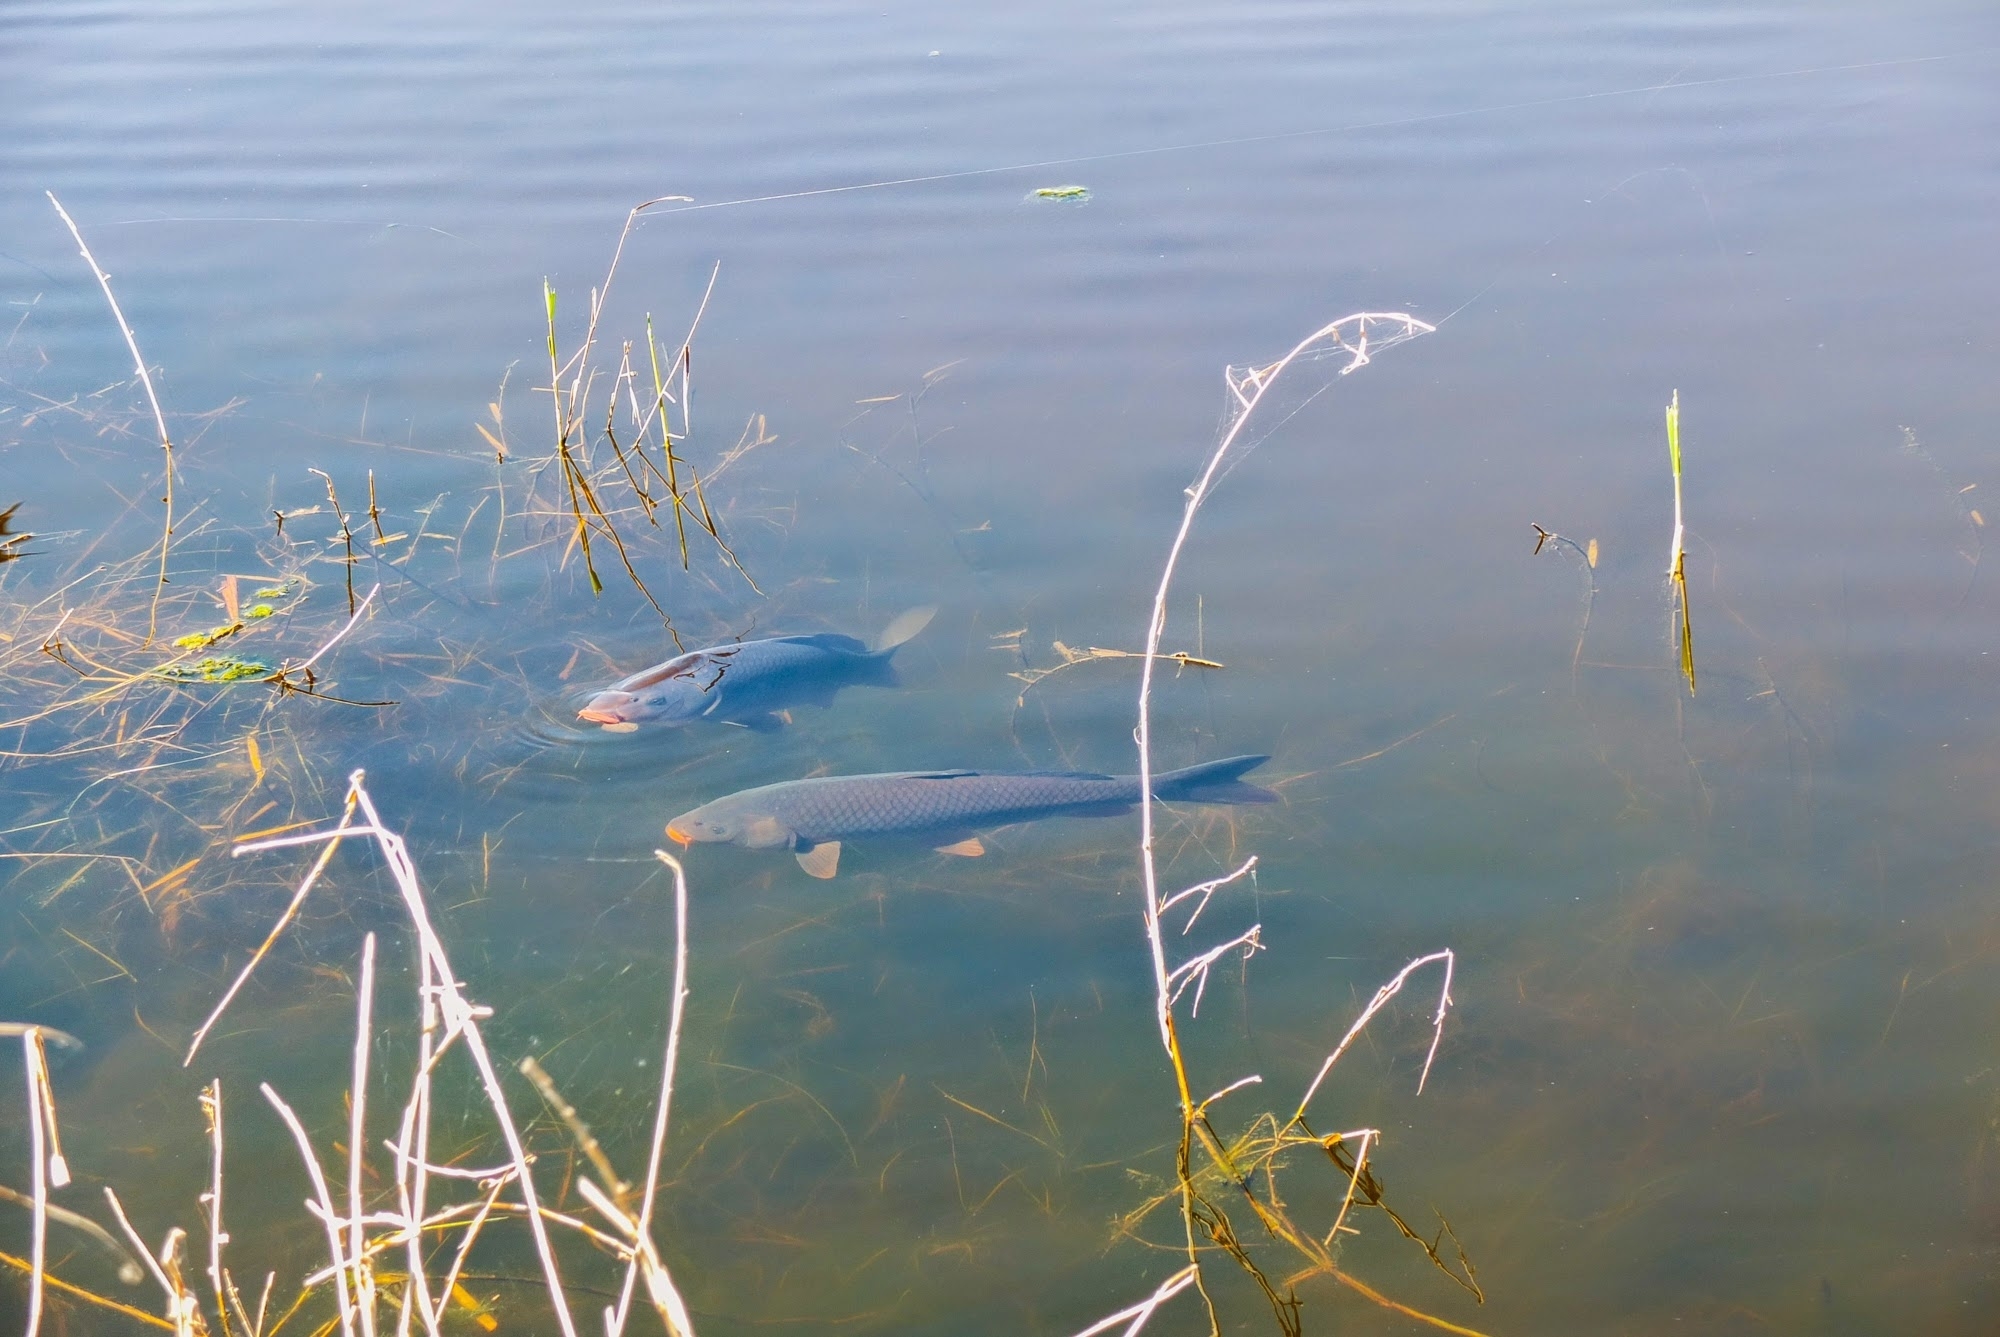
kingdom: Animalia
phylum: Chordata
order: Cypriniformes
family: Cyprinidae
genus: Cyprinus
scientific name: Cyprinus carpio
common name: Common carp
